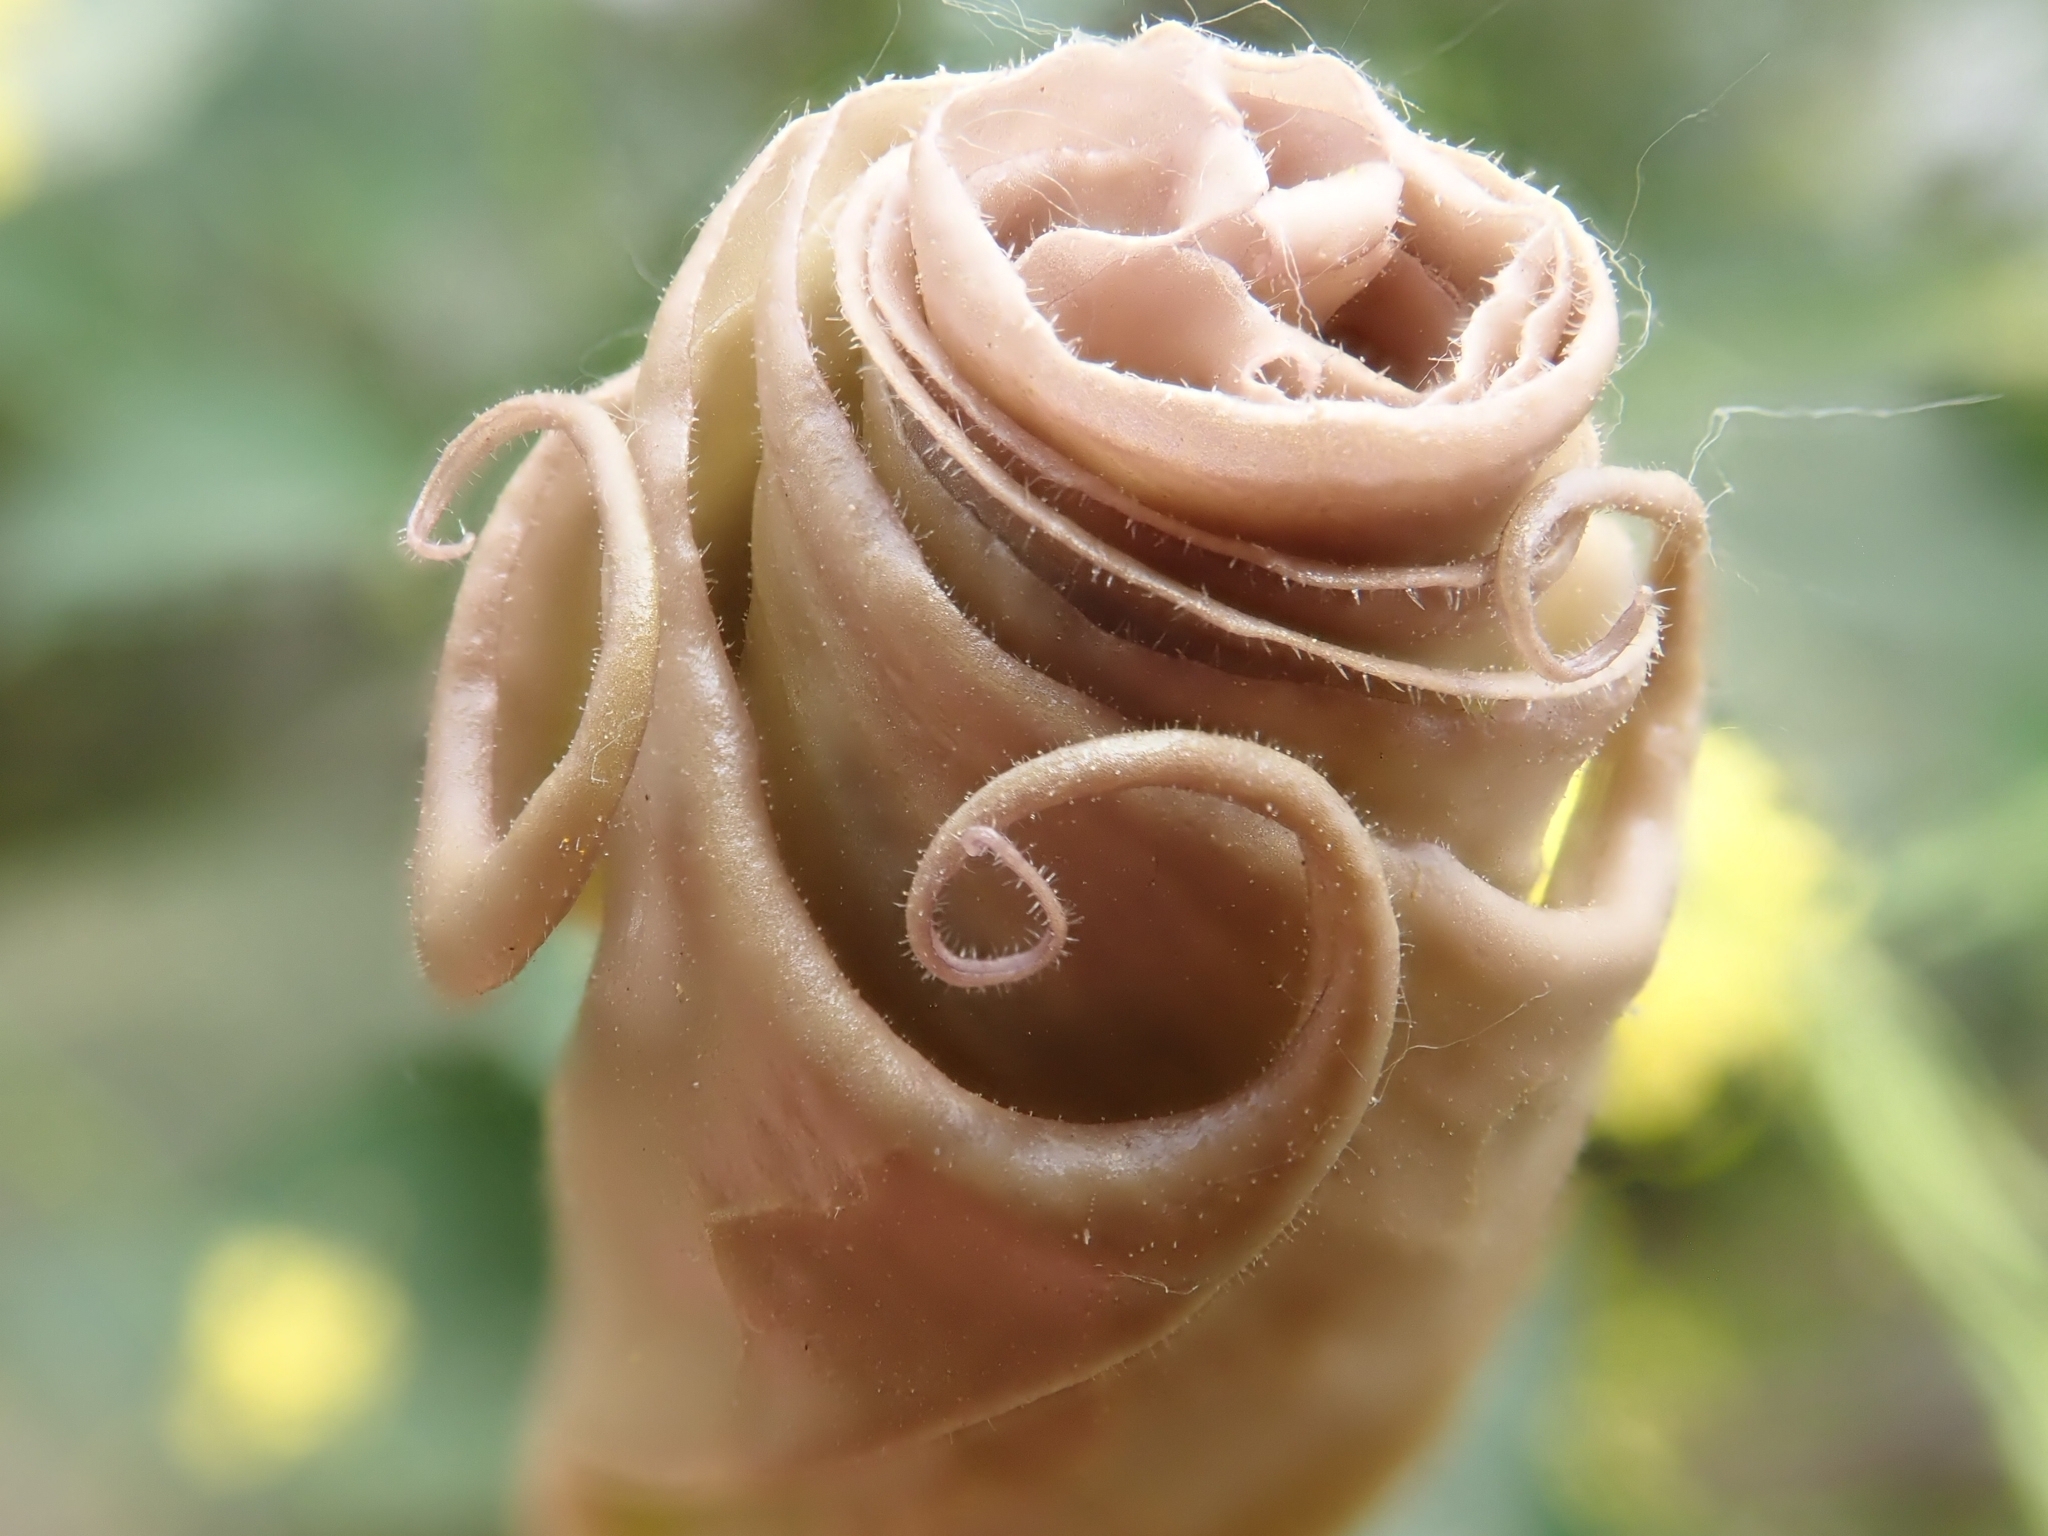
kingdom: Plantae
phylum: Tracheophyta
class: Magnoliopsida
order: Solanales
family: Solanaceae
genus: Datura
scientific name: Datura wrightii
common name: Sacred thorn-apple
